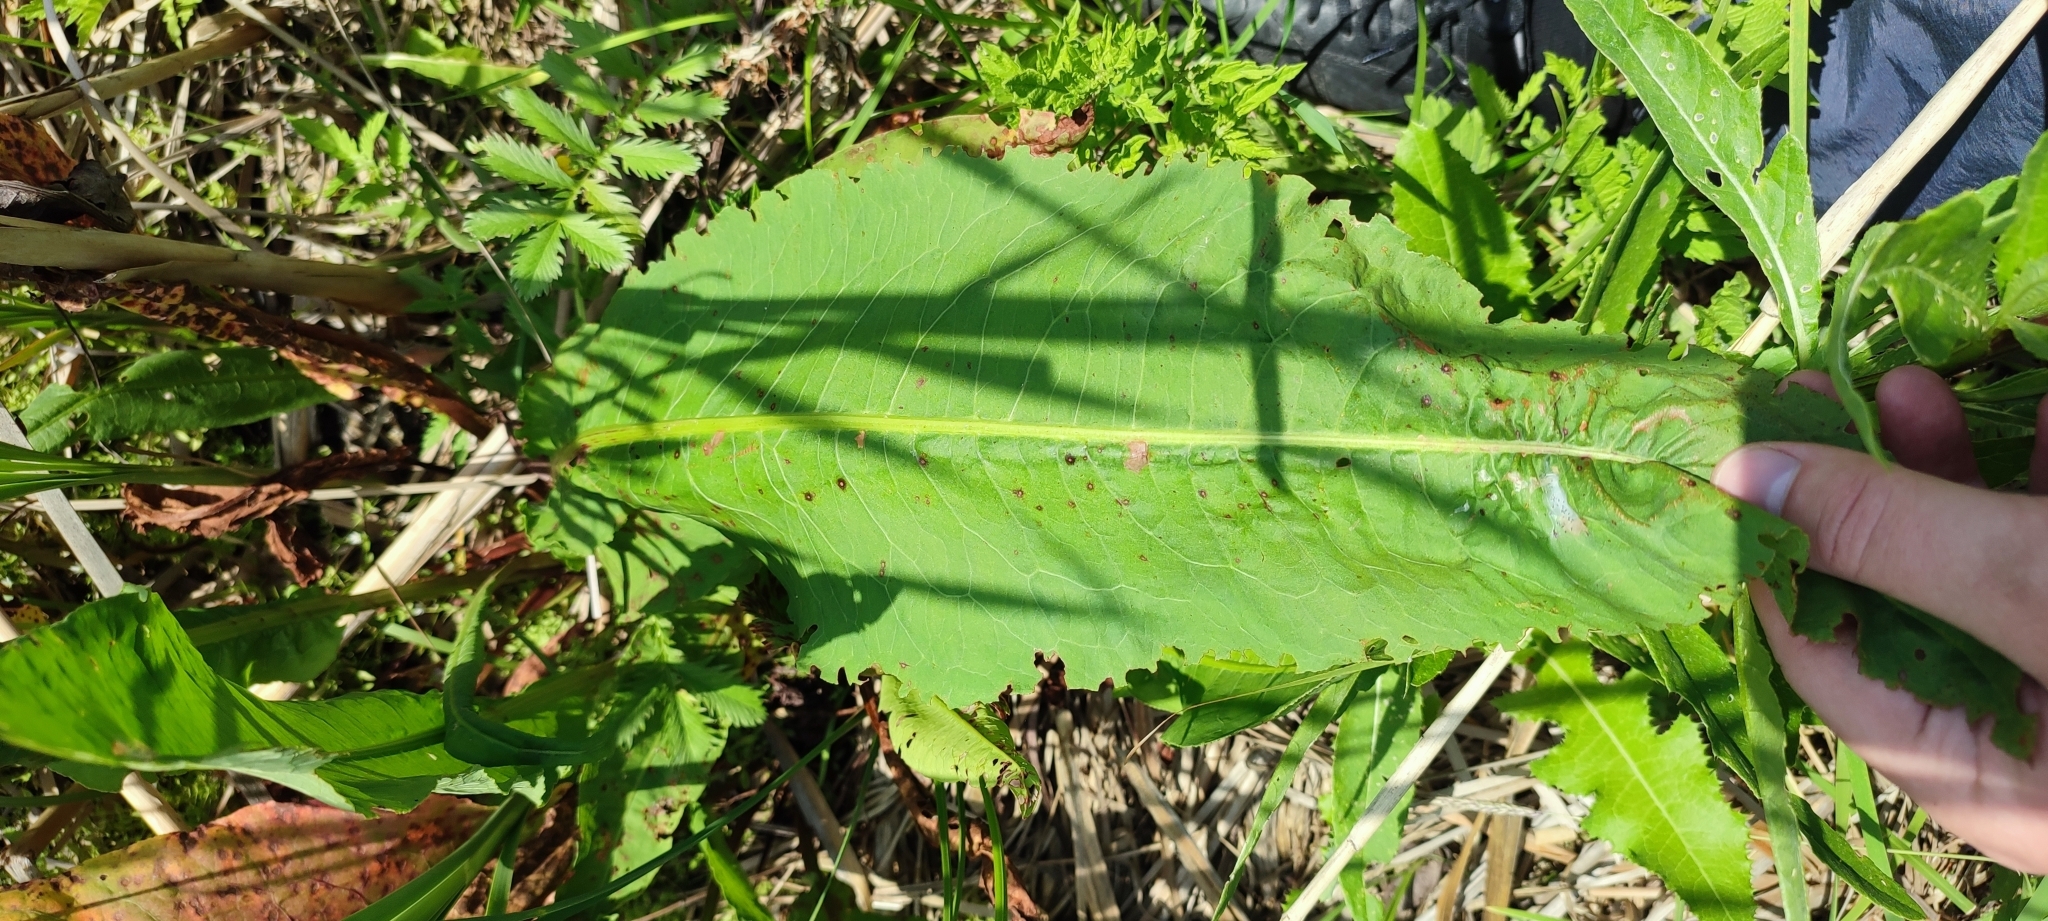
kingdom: Plantae
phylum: Tracheophyta
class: Magnoliopsida
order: Caryophyllales
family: Polygonaceae
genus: Rumex
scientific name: Rumex aquaticus
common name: Scottish dock
